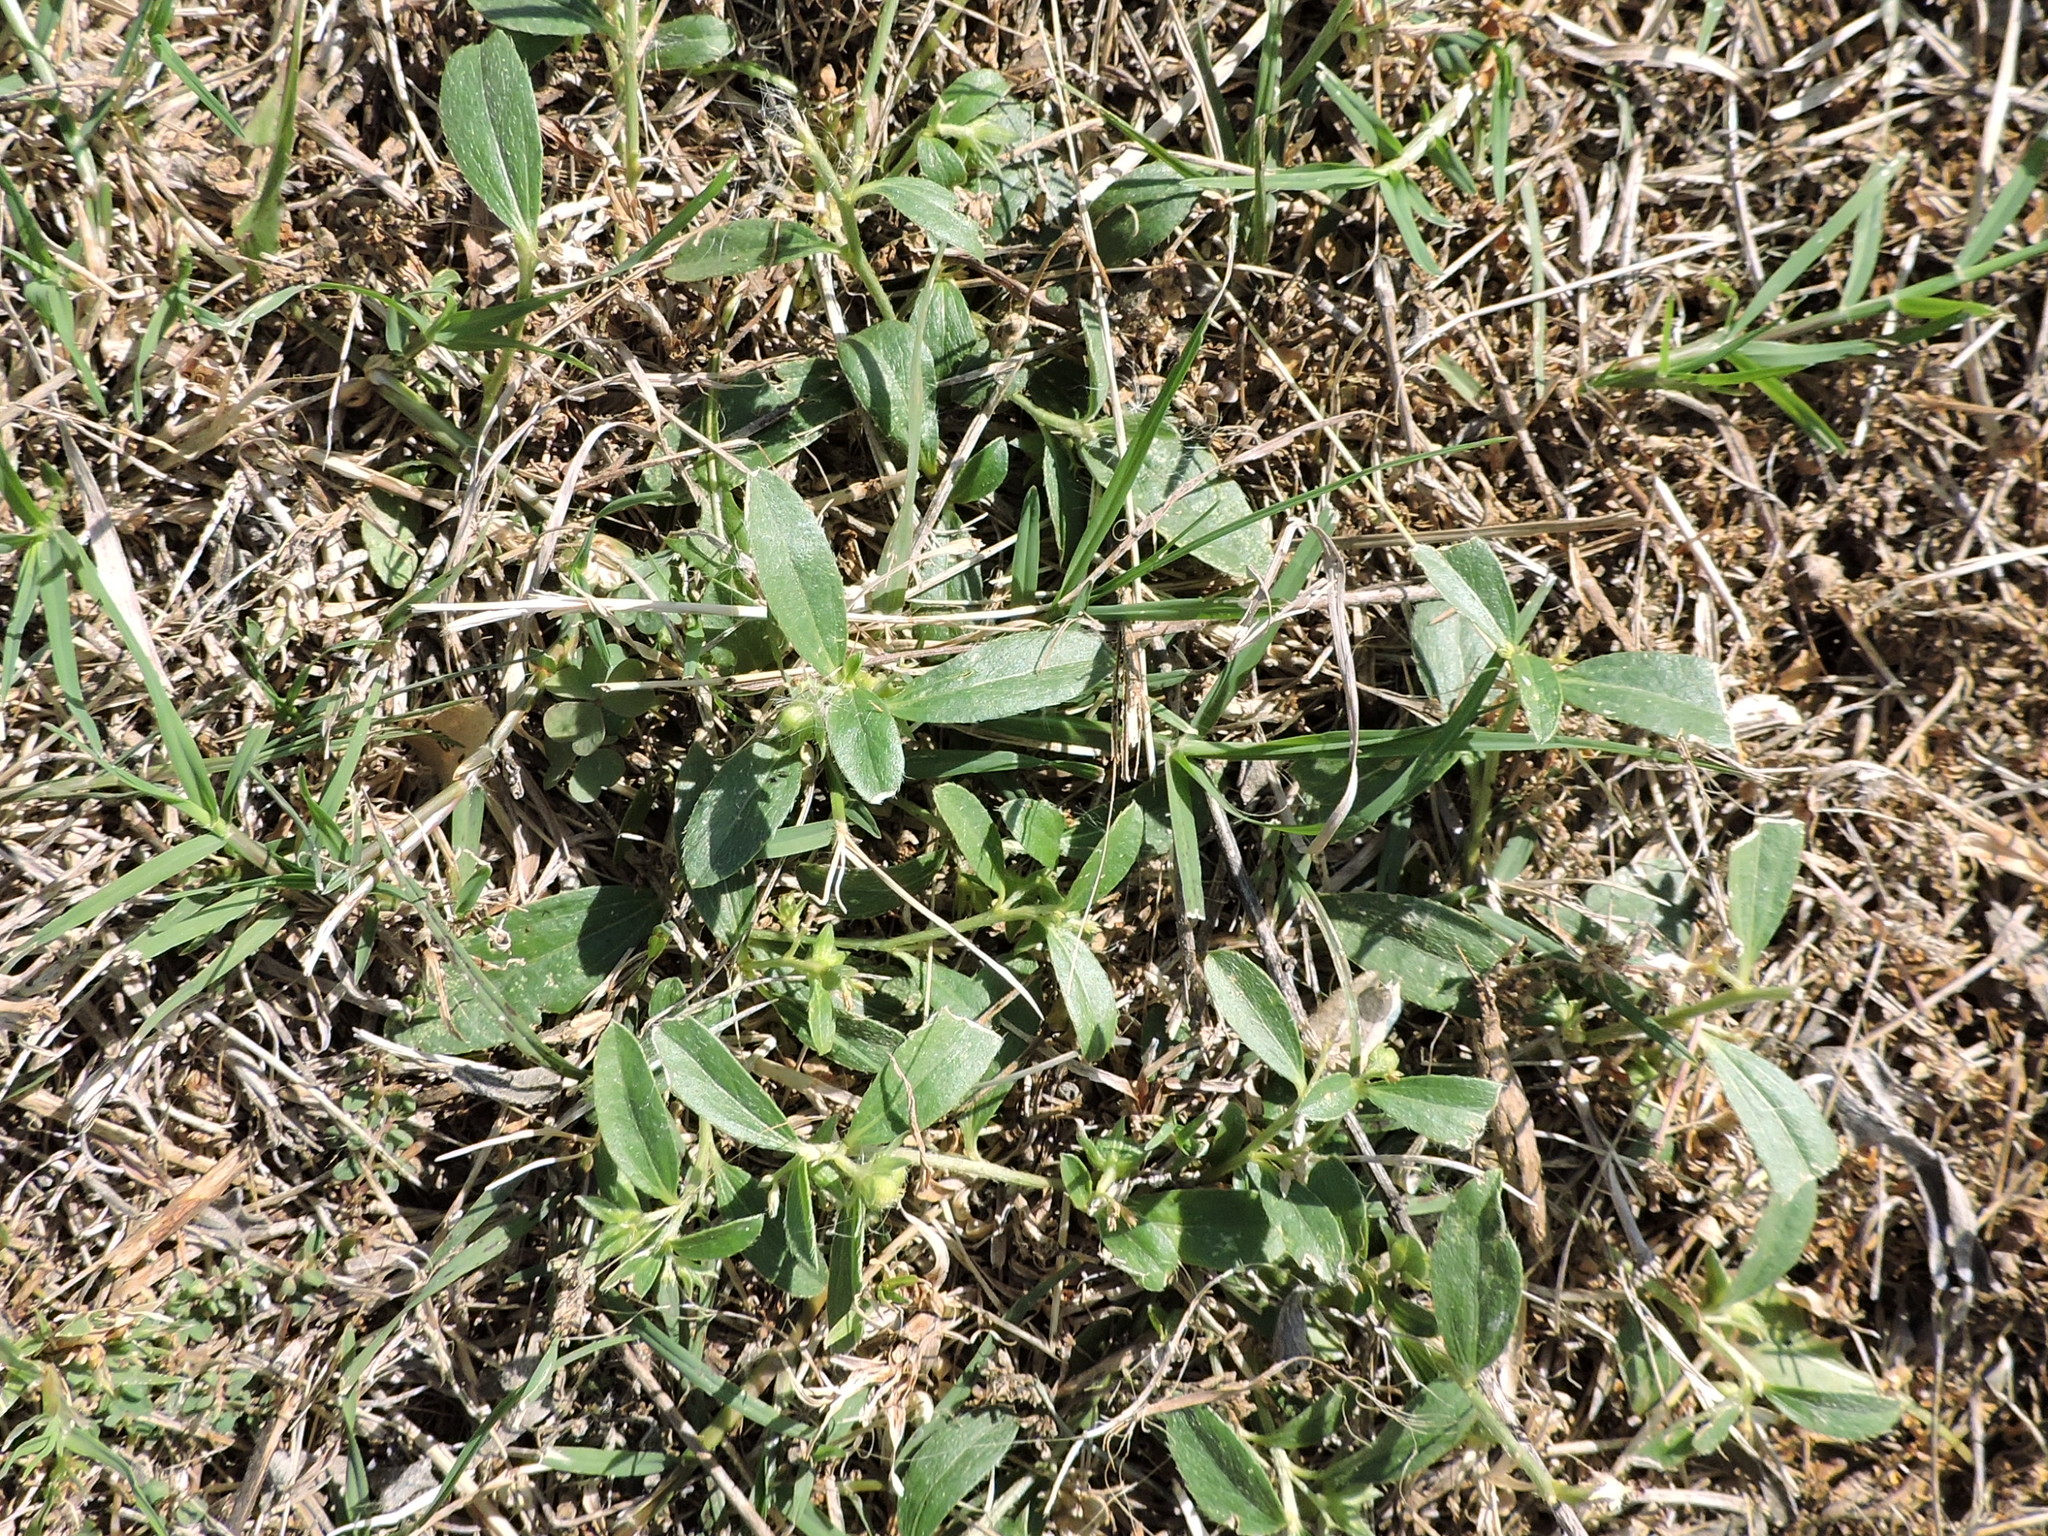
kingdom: Plantae
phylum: Tracheophyta
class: Magnoliopsida
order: Malpighiales
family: Euphorbiaceae
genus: Ditaxis
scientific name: Ditaxis humilis
